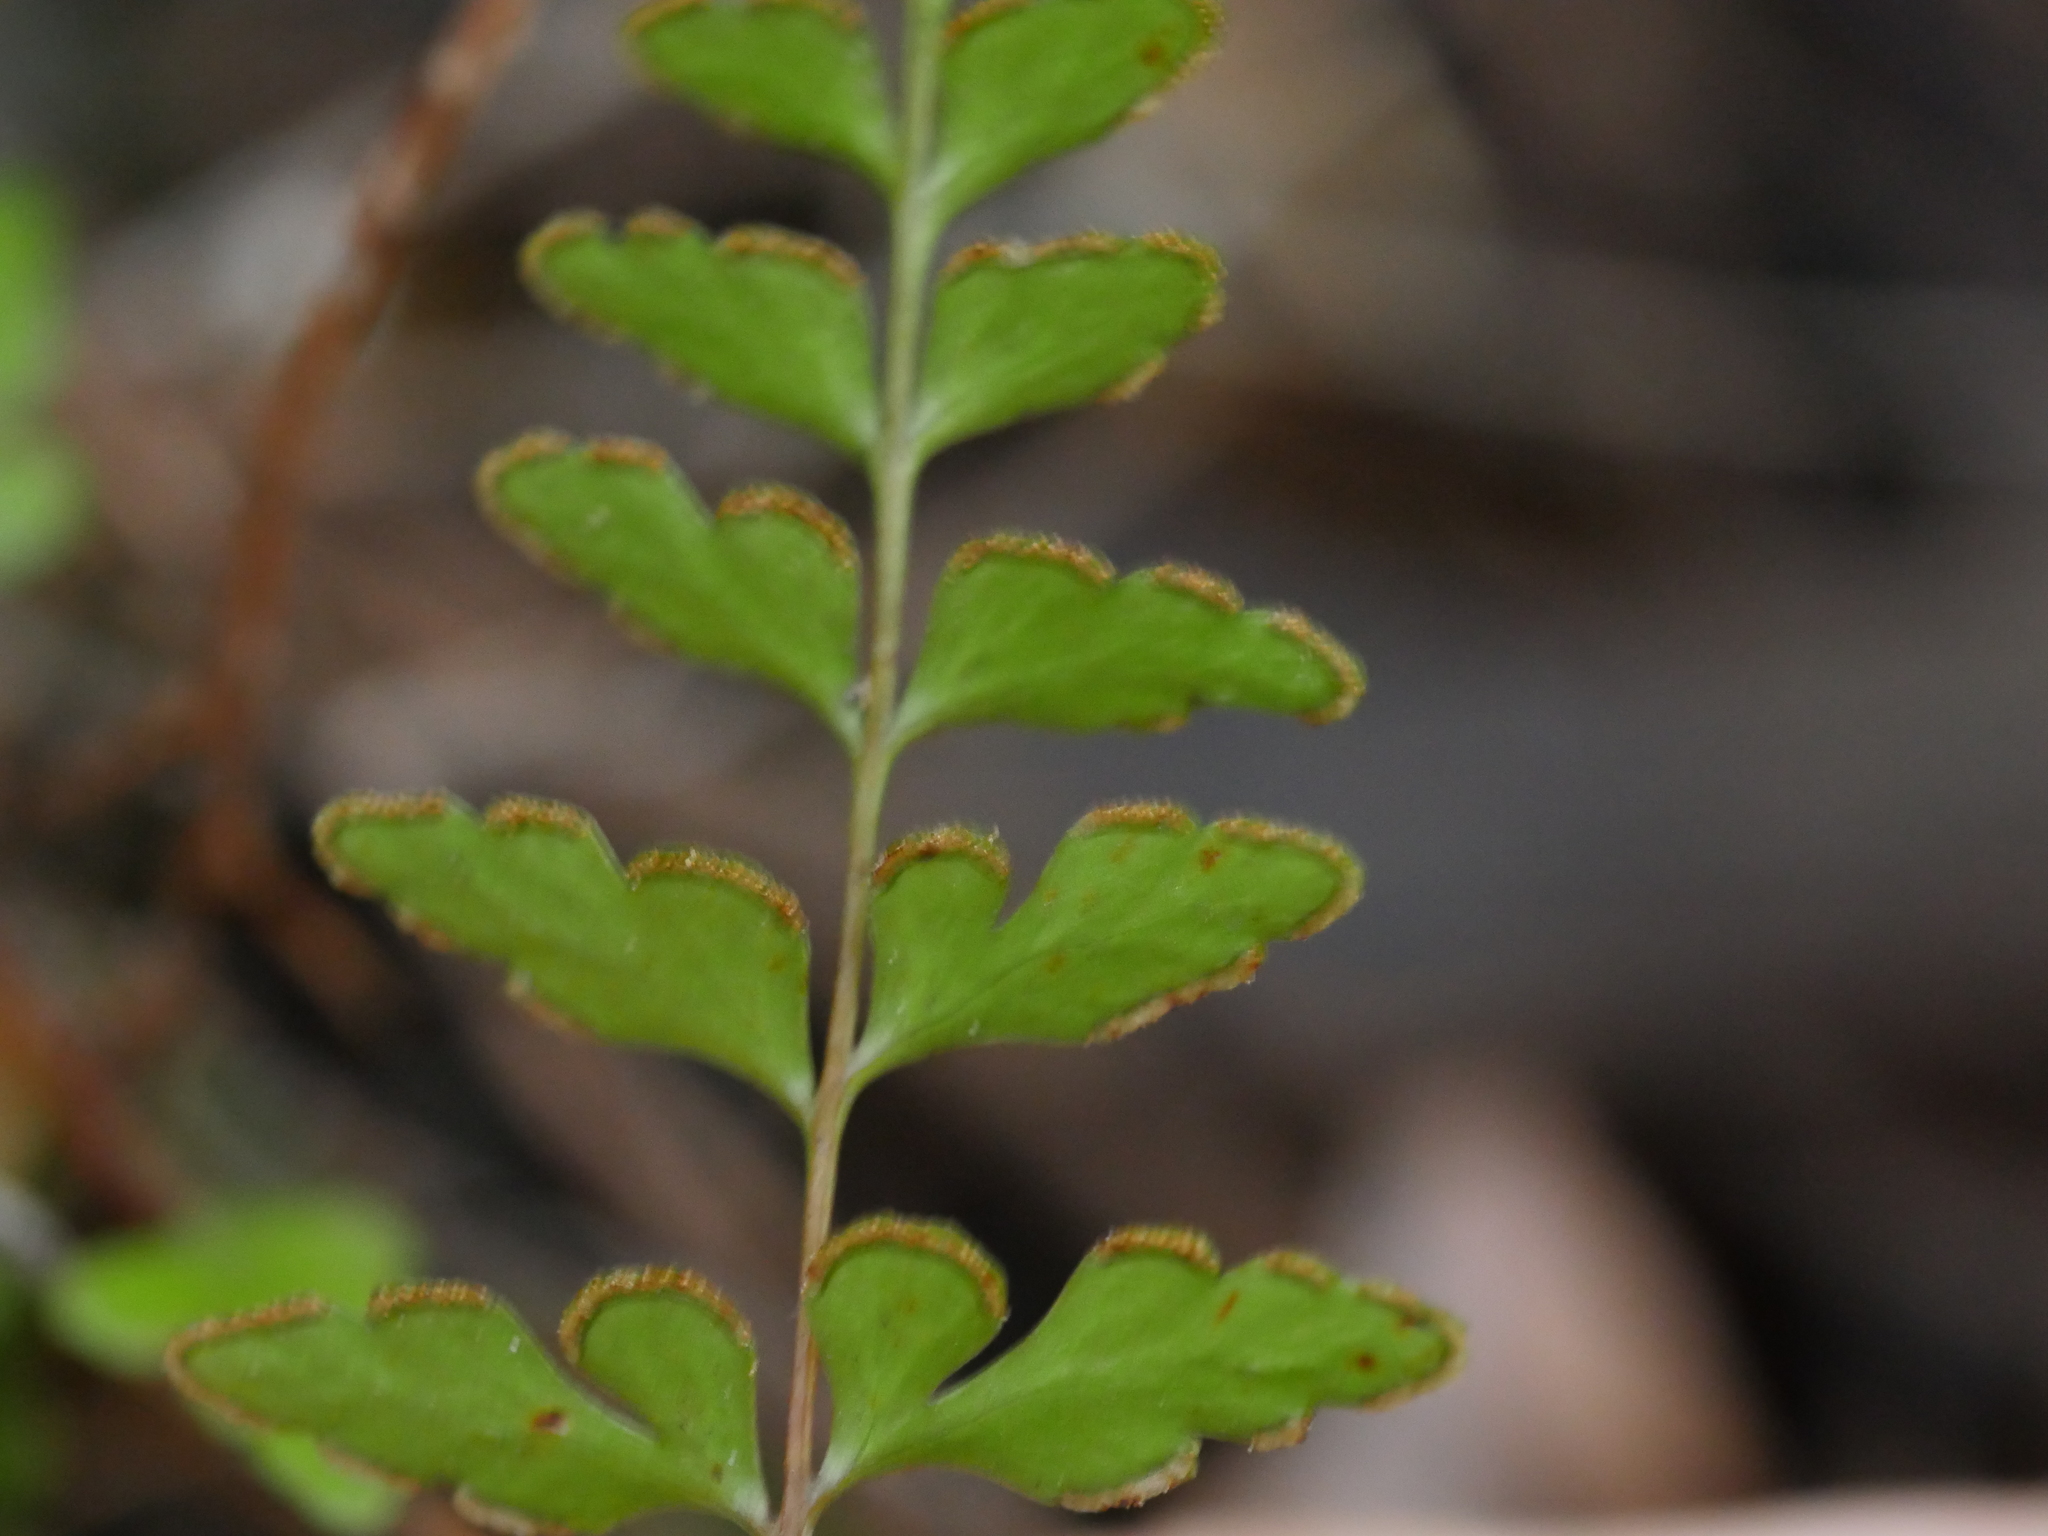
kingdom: Plantae
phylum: Tracheophyta
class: Polypodiopsida
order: Polypodiales
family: Lindsaeaceae
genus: Lindsaea
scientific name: Lindsaea trichomanoides
